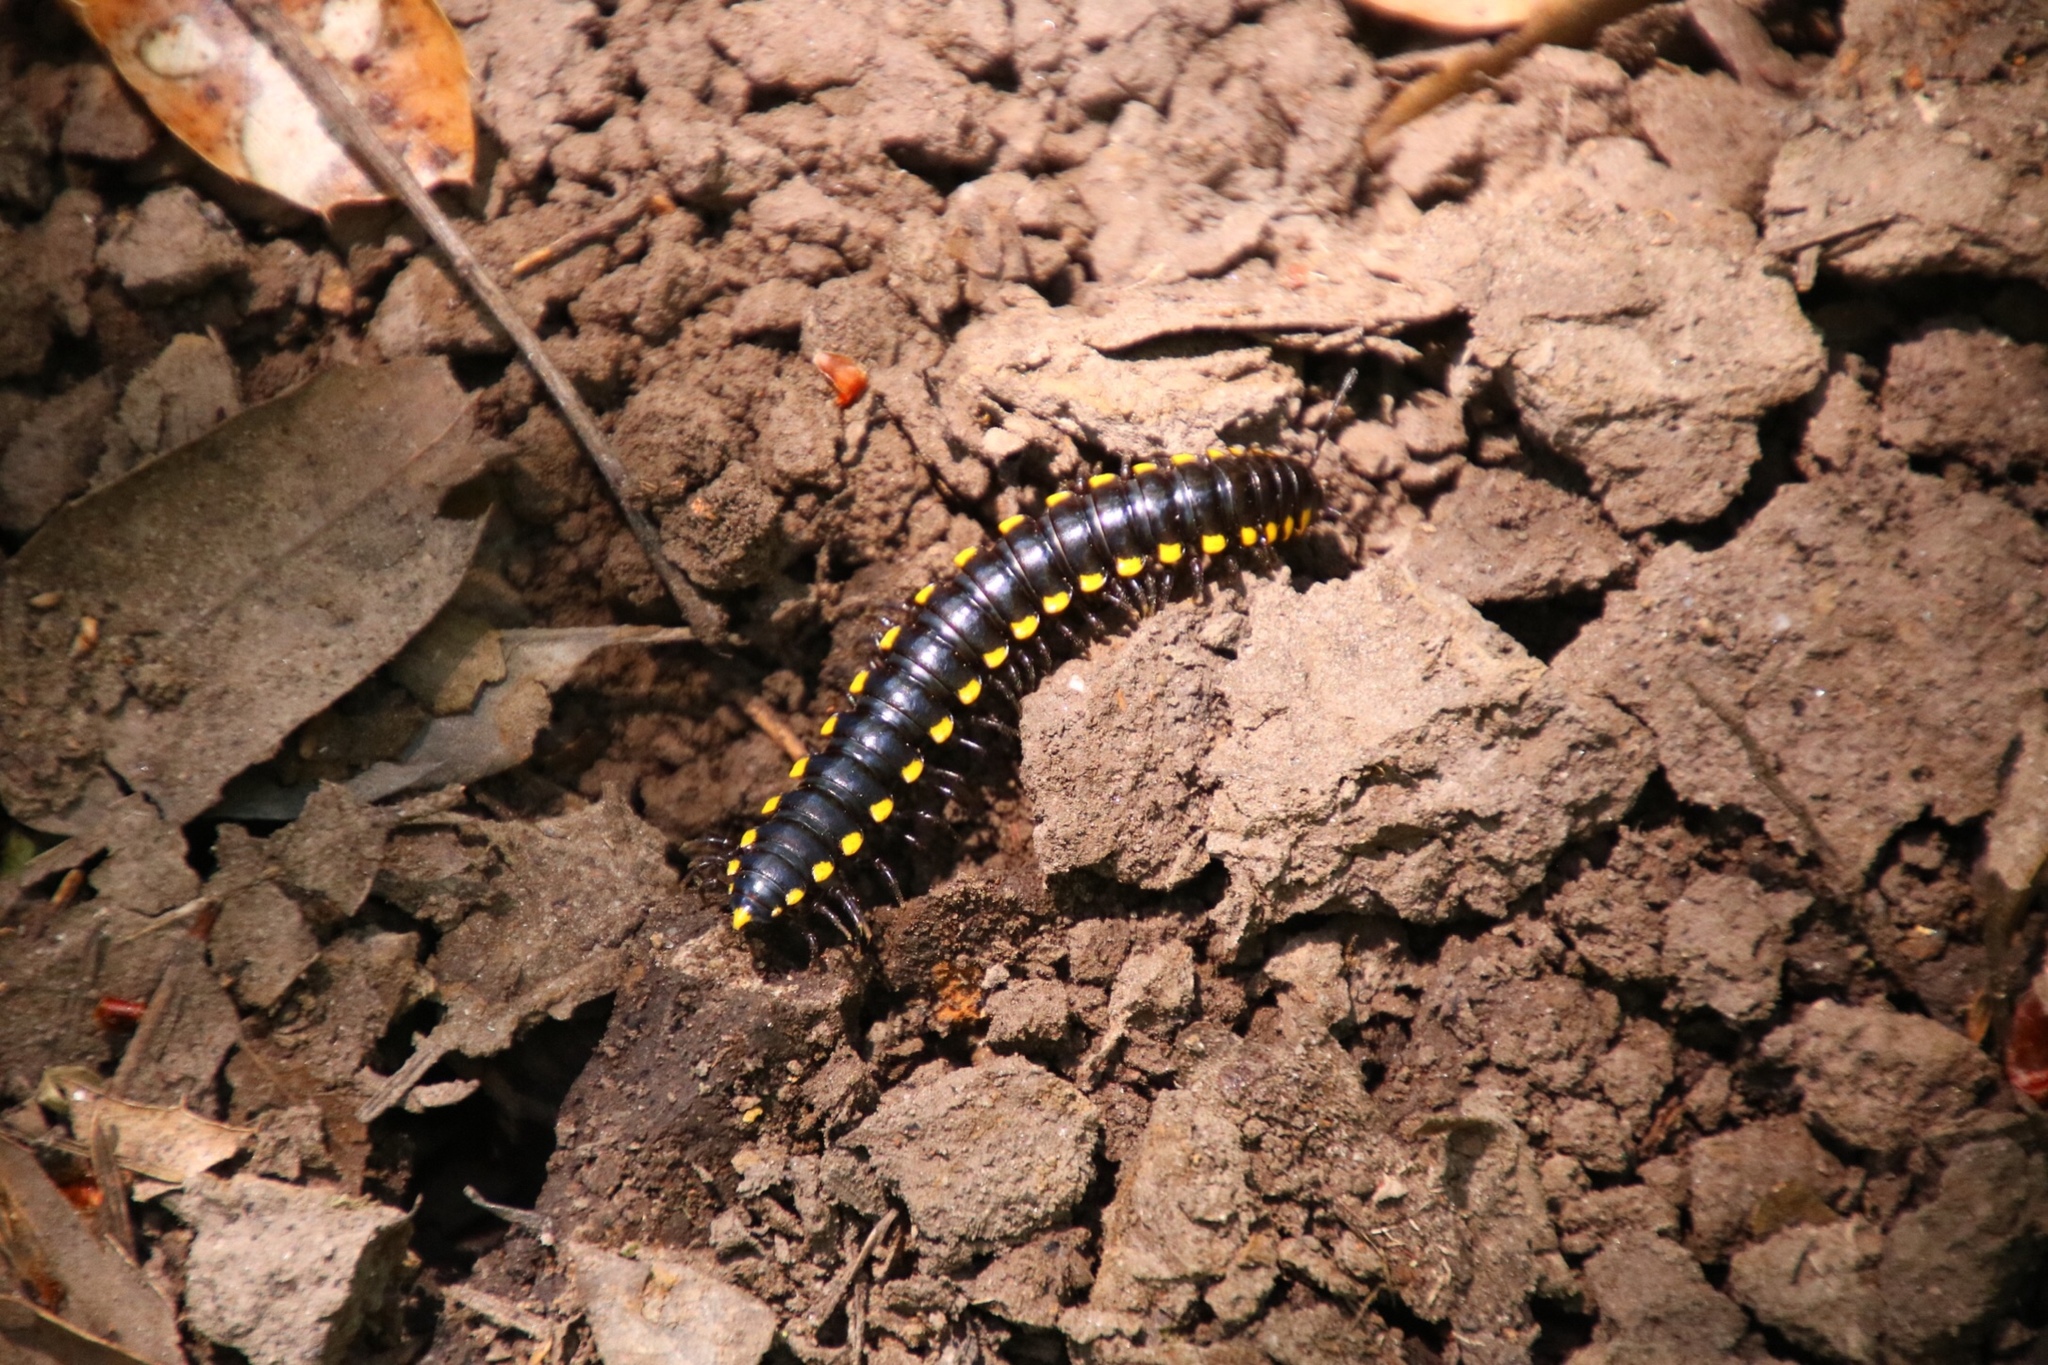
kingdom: Animalia
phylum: Arthropoda
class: Diplopoda
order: Polydesmida
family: Xystodesmidae
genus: Harpaphe
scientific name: Harpaphe haydeniana
